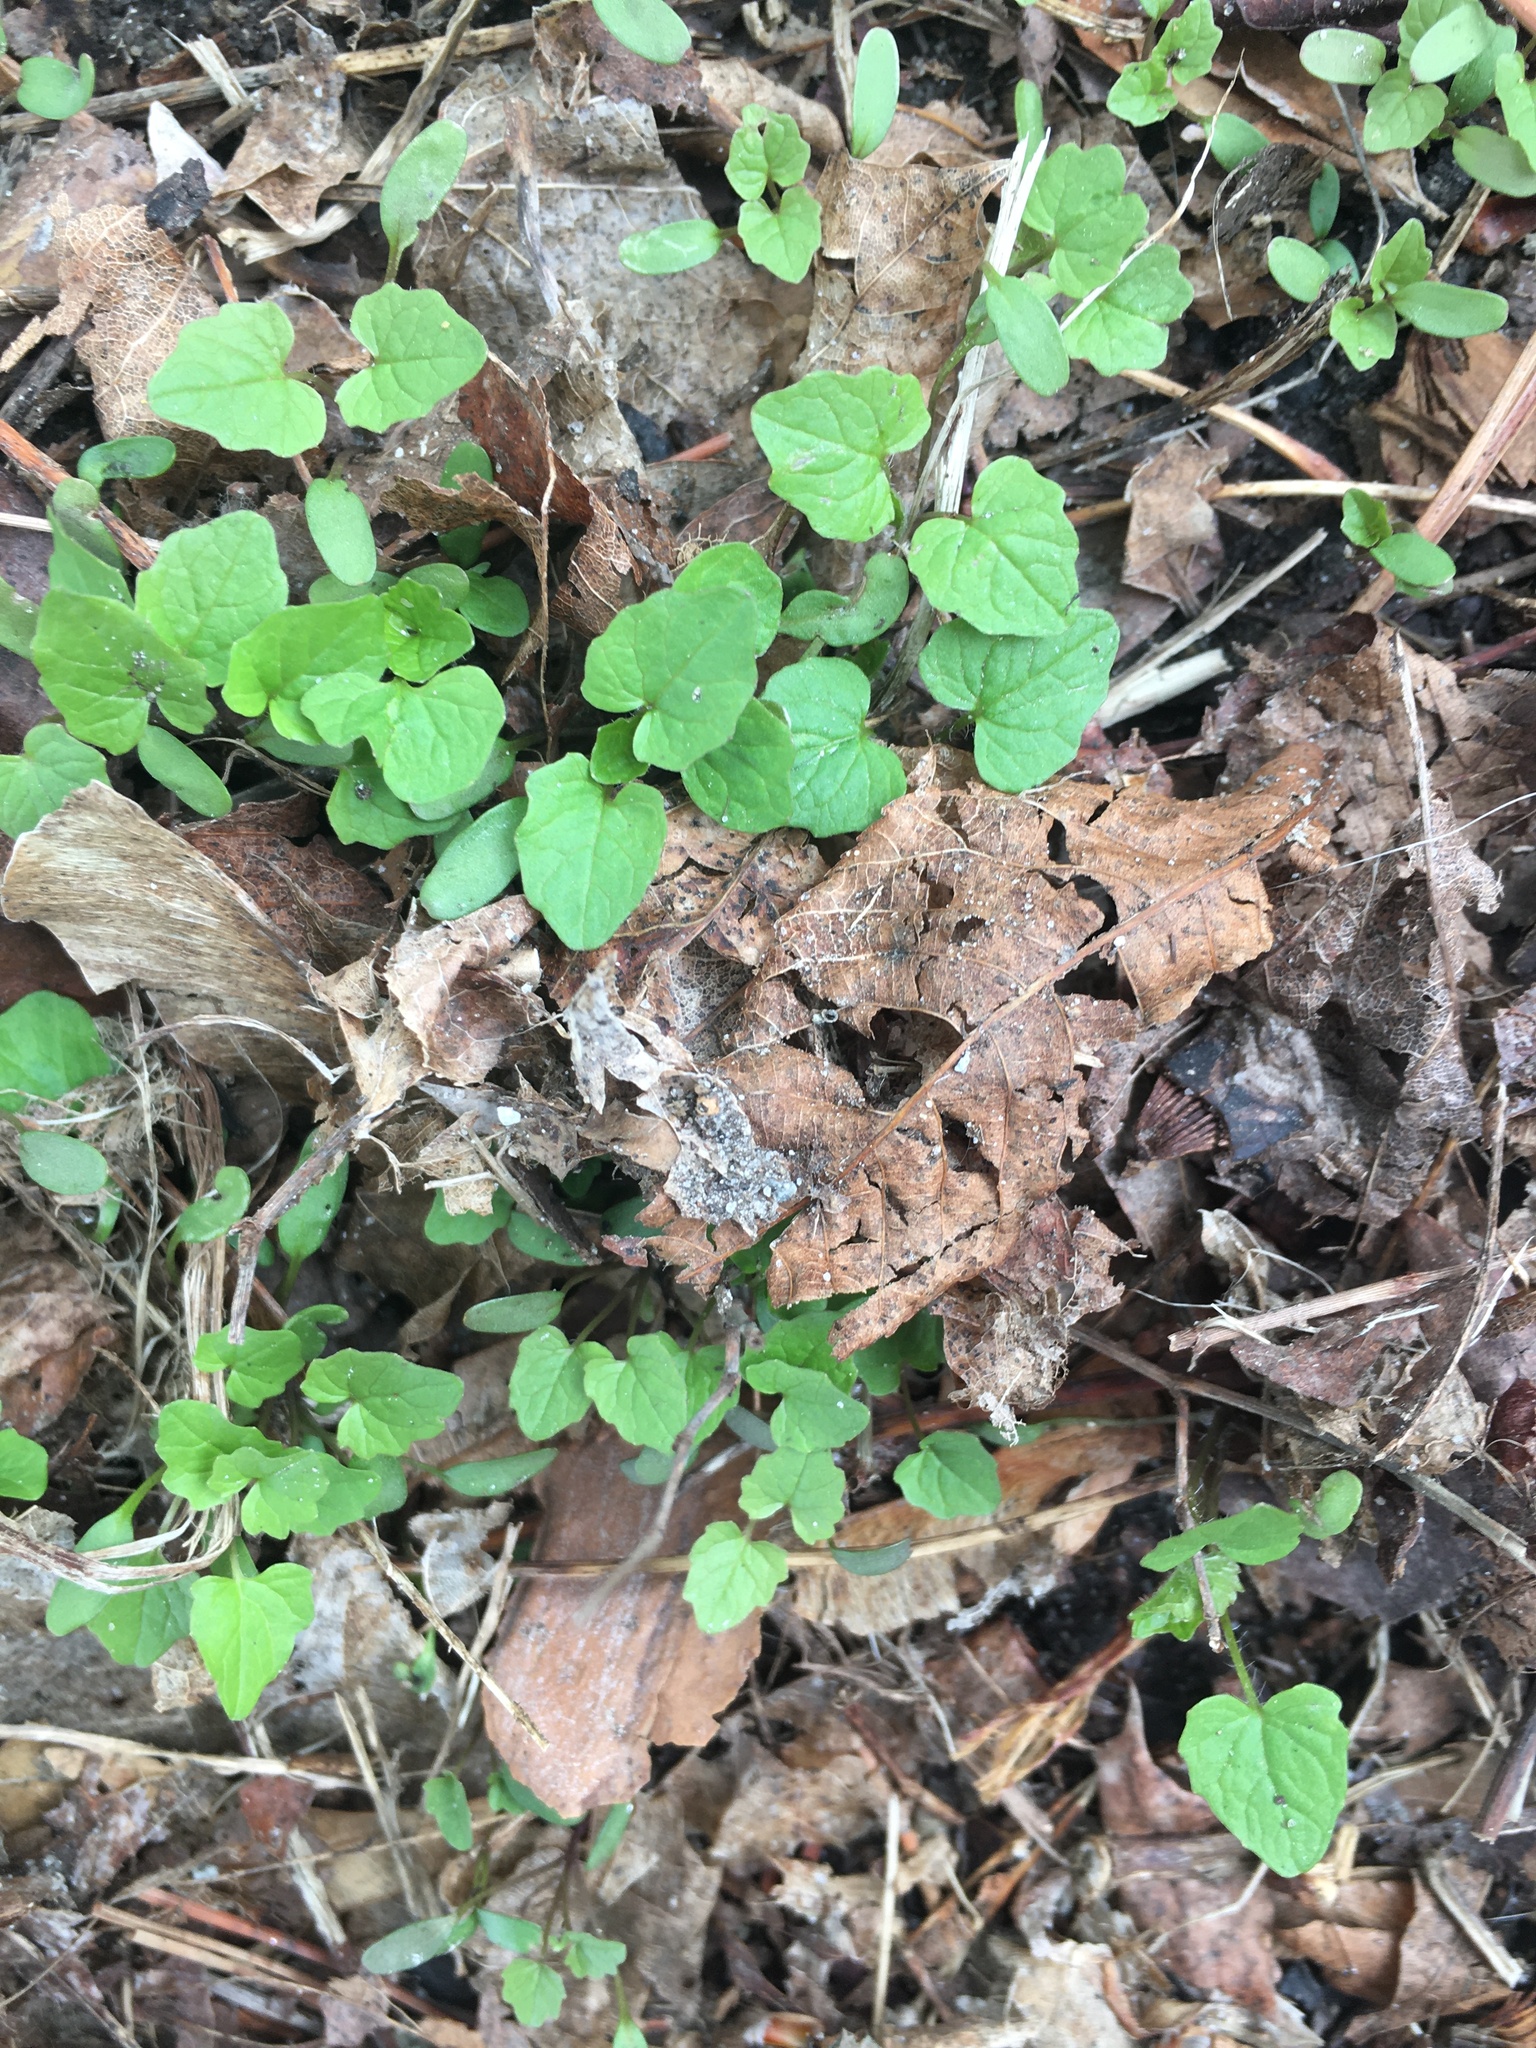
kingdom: Plantae
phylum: Tracheophyta
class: Magnoliopsida
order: Ranunculales
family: Ranunculaceae
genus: Ficaria
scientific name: Ficaria verna
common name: Lesser celandine
